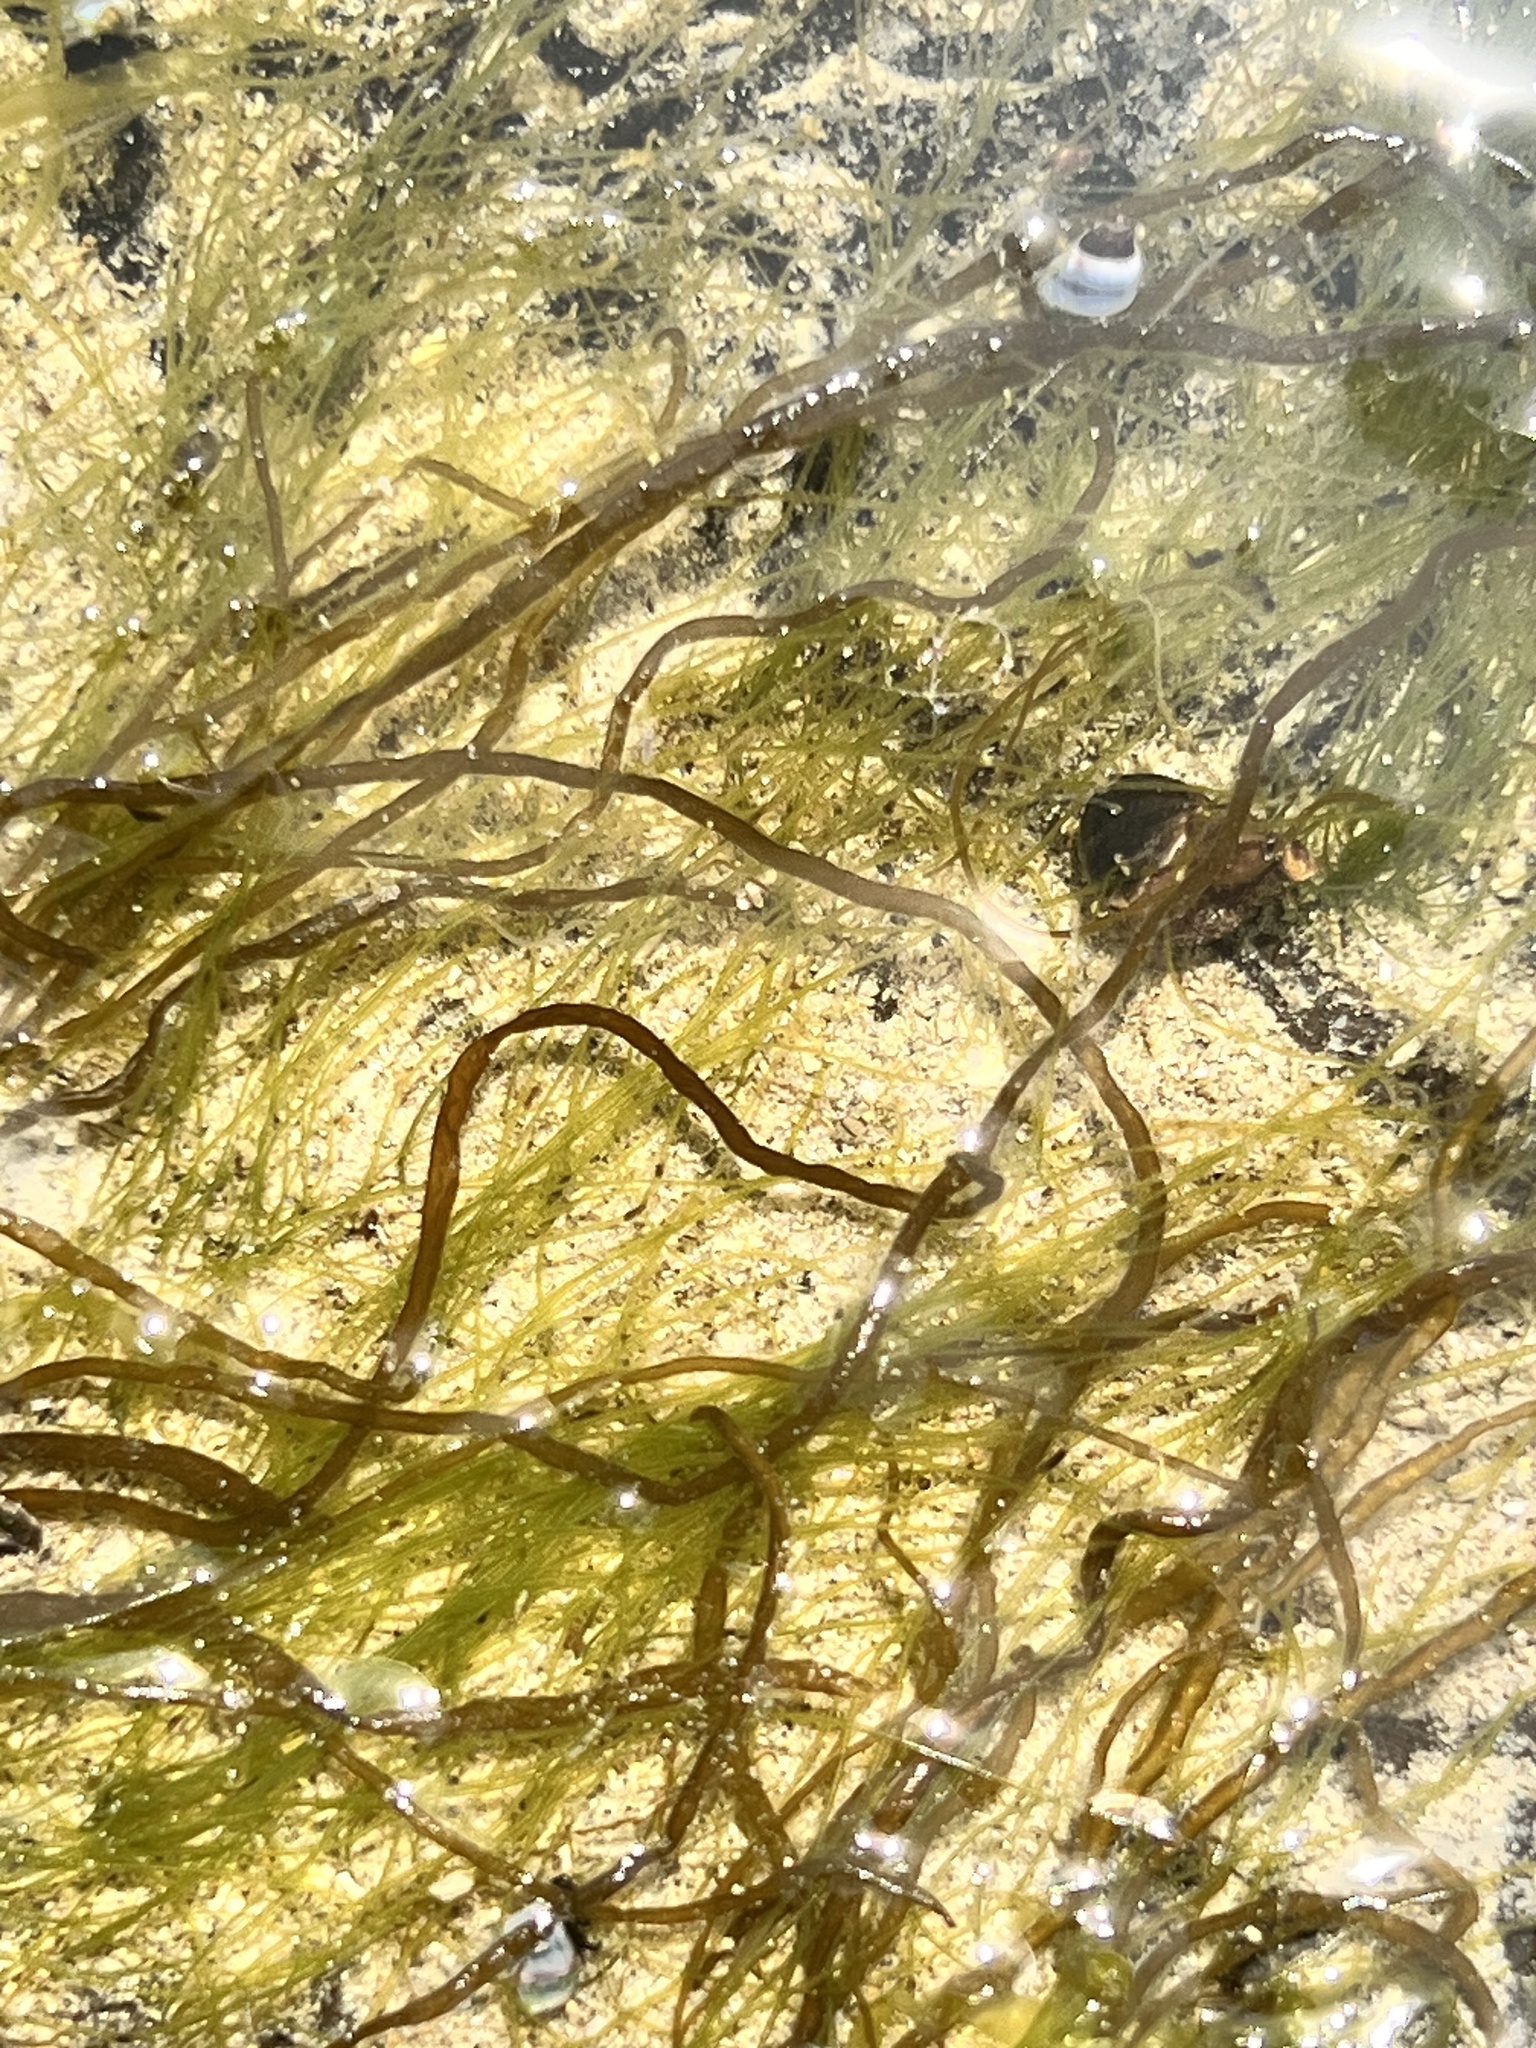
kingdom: Chromista
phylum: Ochrophyta
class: Phaeophyceae
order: Scytosiphonales
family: Scytosiphonaceae
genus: Scytosiphon
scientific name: Scytosiphon lomentaria
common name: Beanweed
